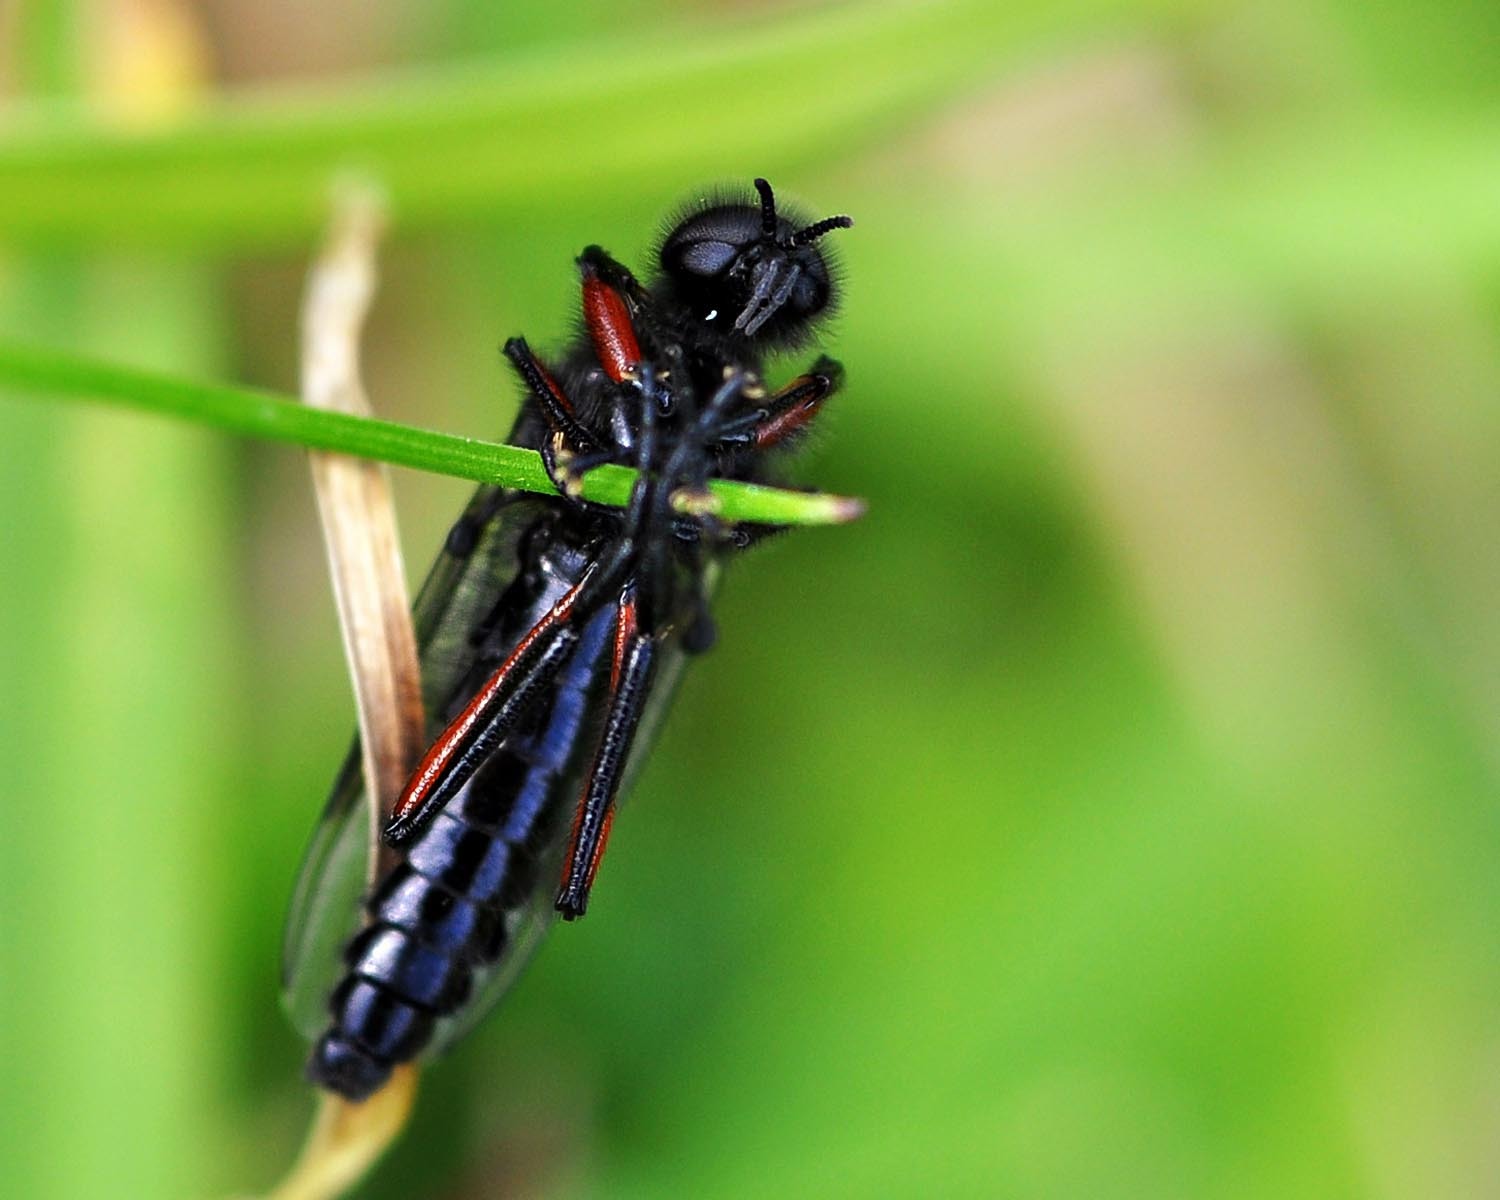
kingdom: Animalia
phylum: Arthropoda
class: Insecta
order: Diptera
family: Bibionidae
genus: Bibio
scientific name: Bibio pomonae
